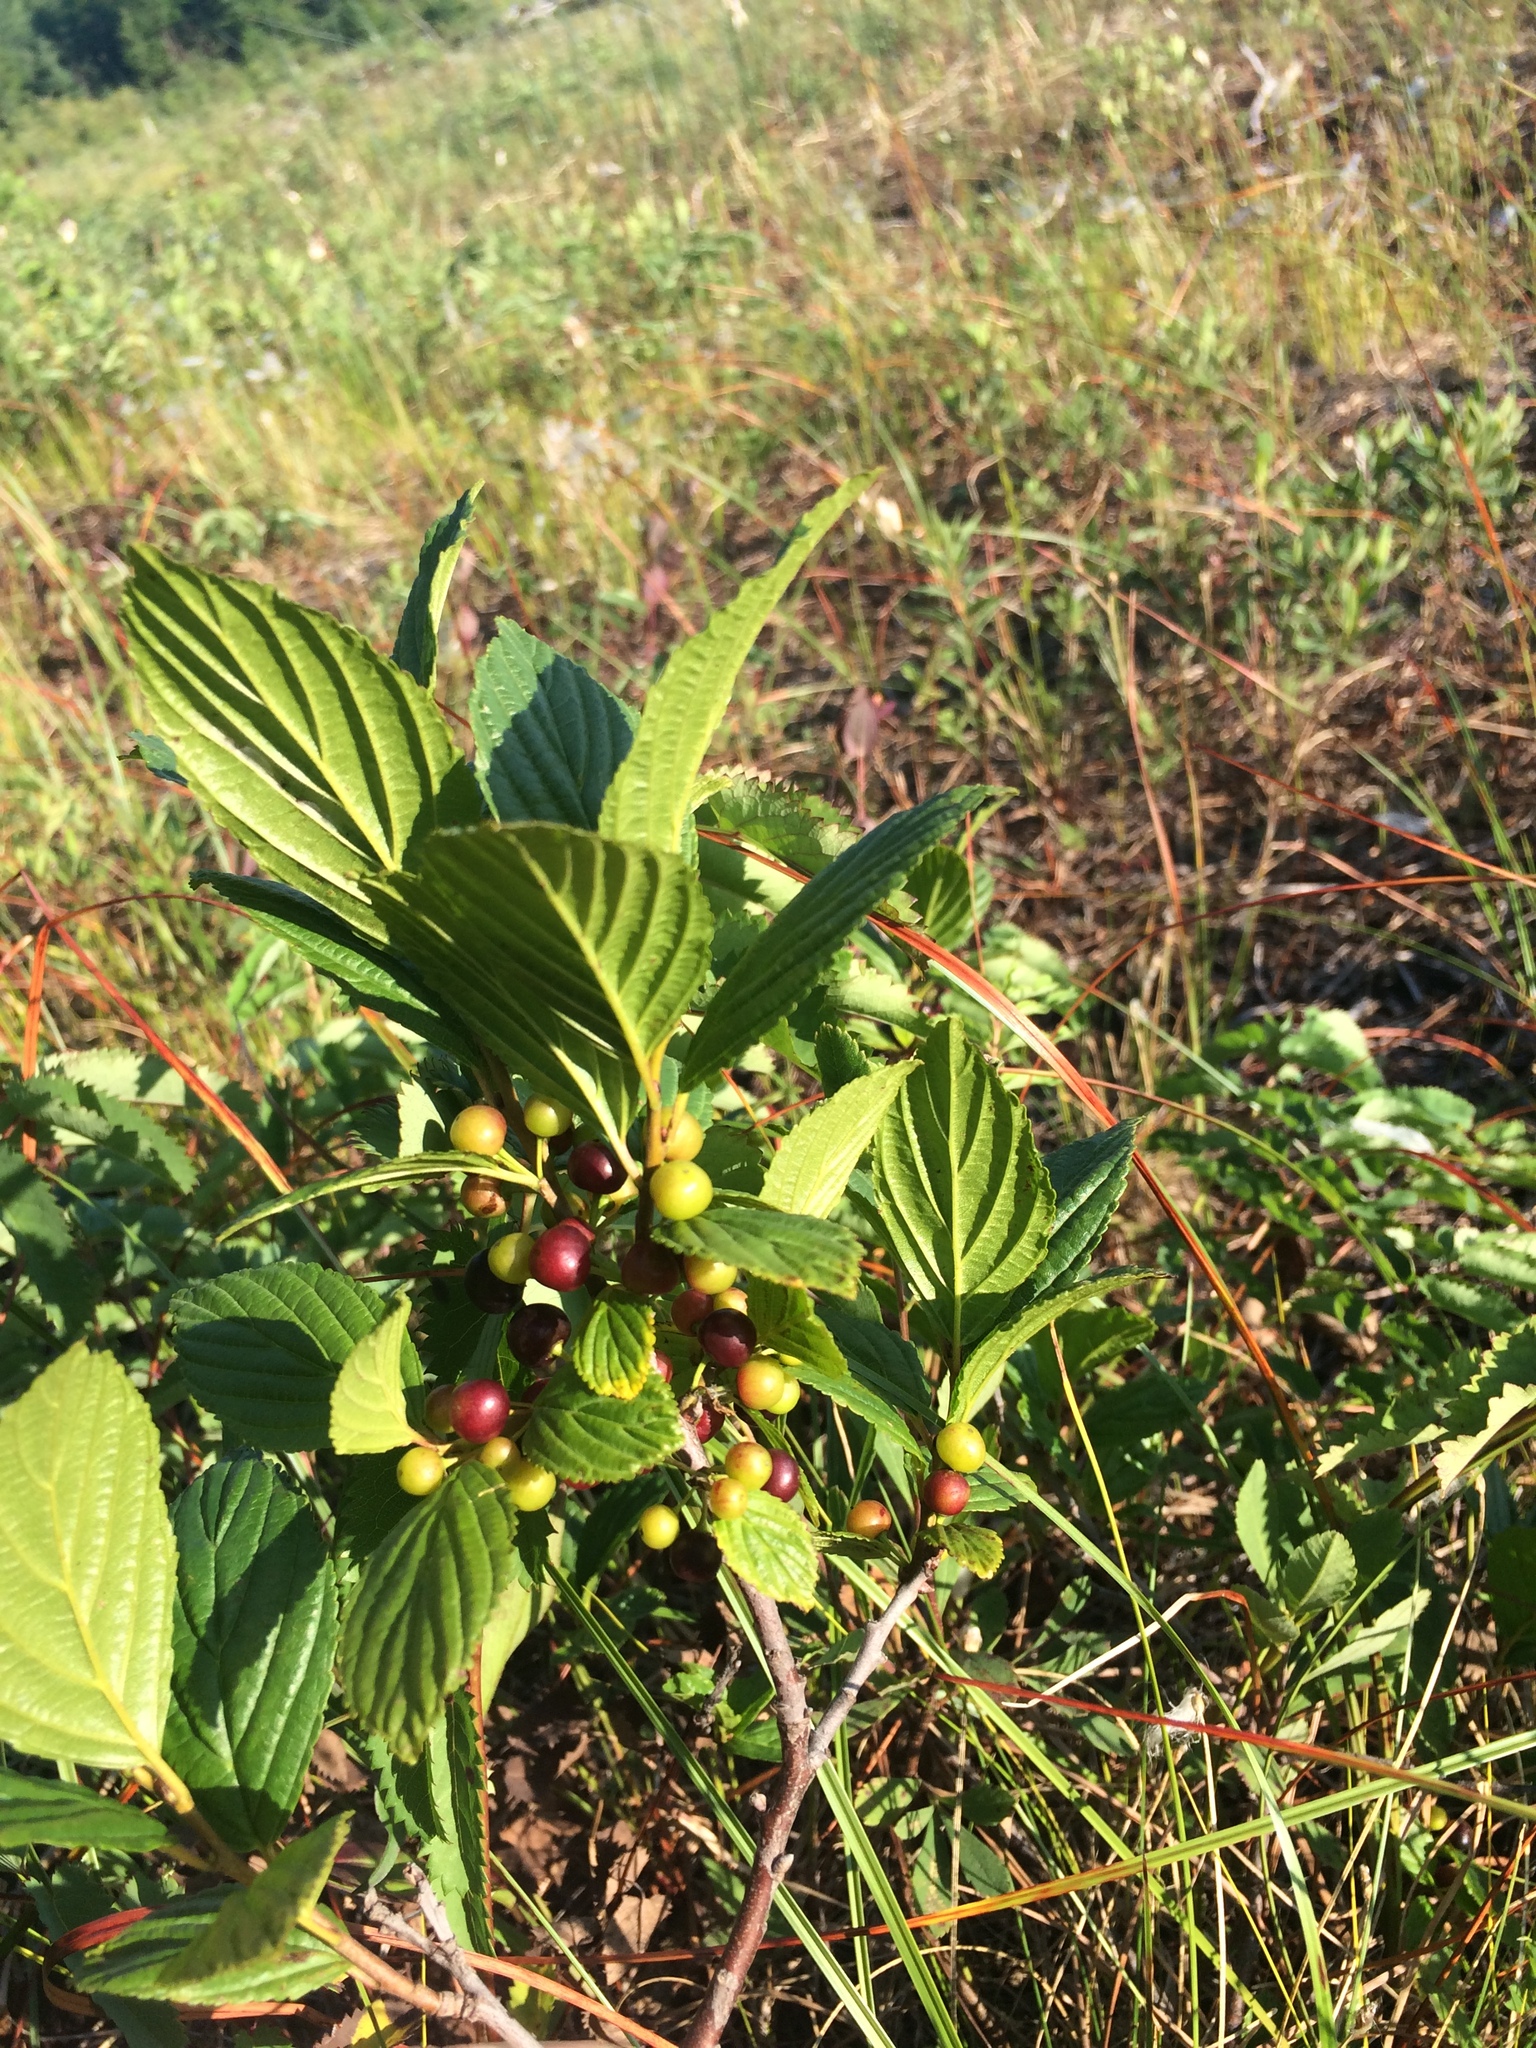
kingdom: Plantae
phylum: Tracheophyta
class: Magnoliopsida
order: Rosales
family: Rhamnaceae
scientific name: Rhamnaceae
